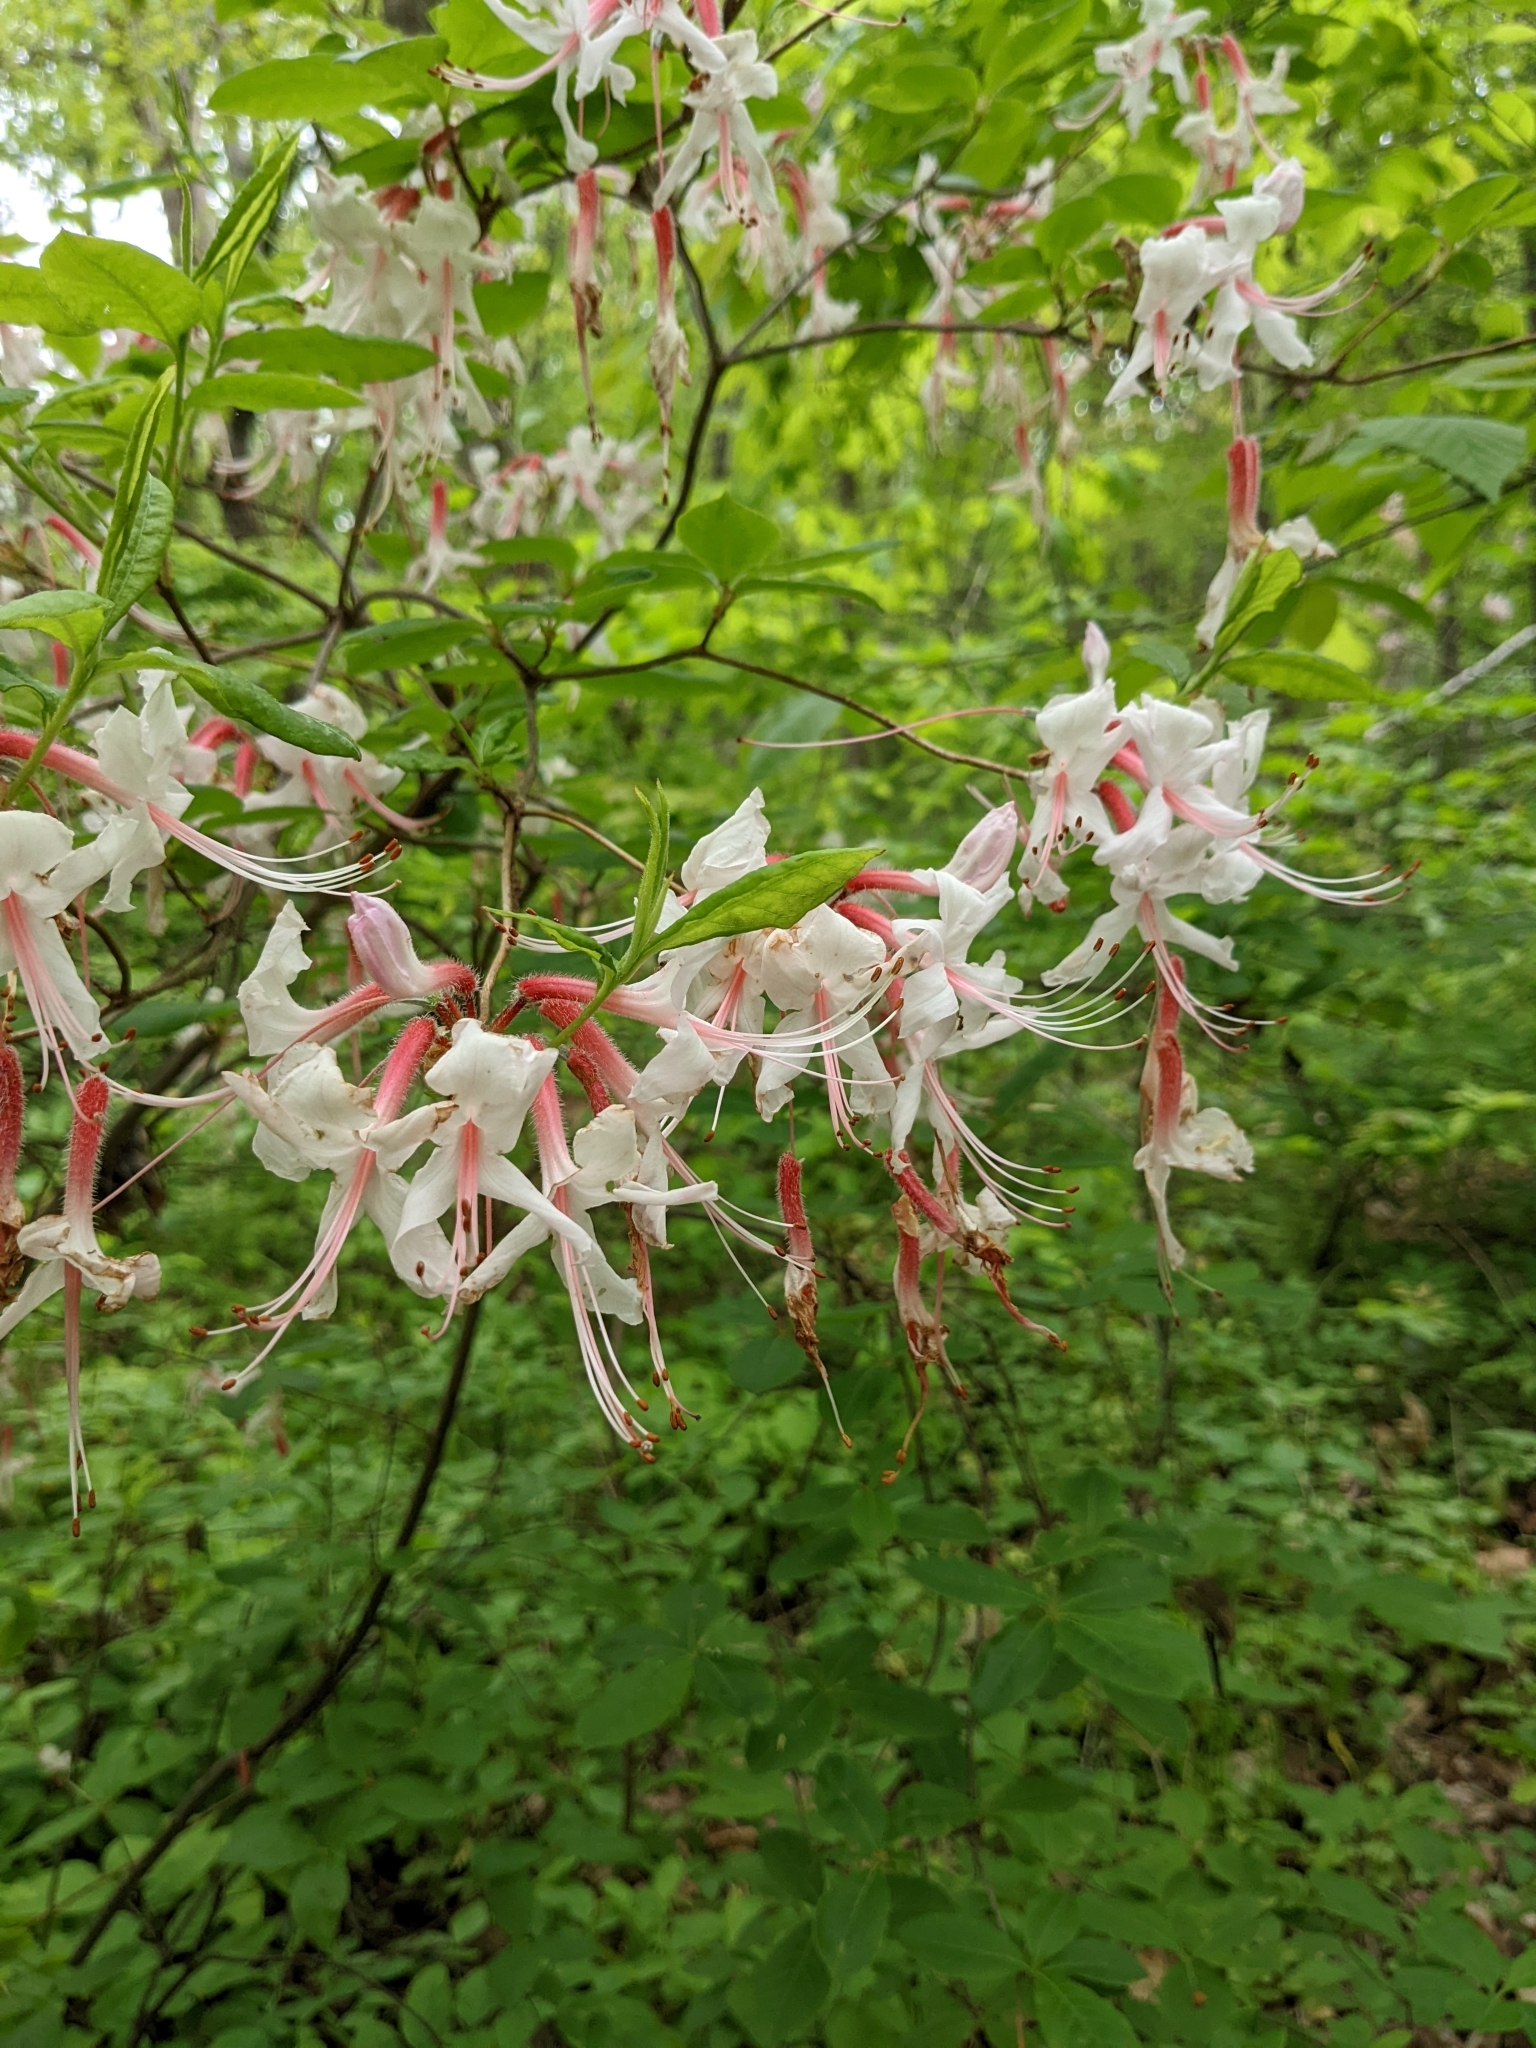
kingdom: Plantae
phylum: Tracheophyta
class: Magnoliopsida
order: Ericales
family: Ericaceae
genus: Rhododendron
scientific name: Rhododendron periclymenoides
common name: Election-pink
